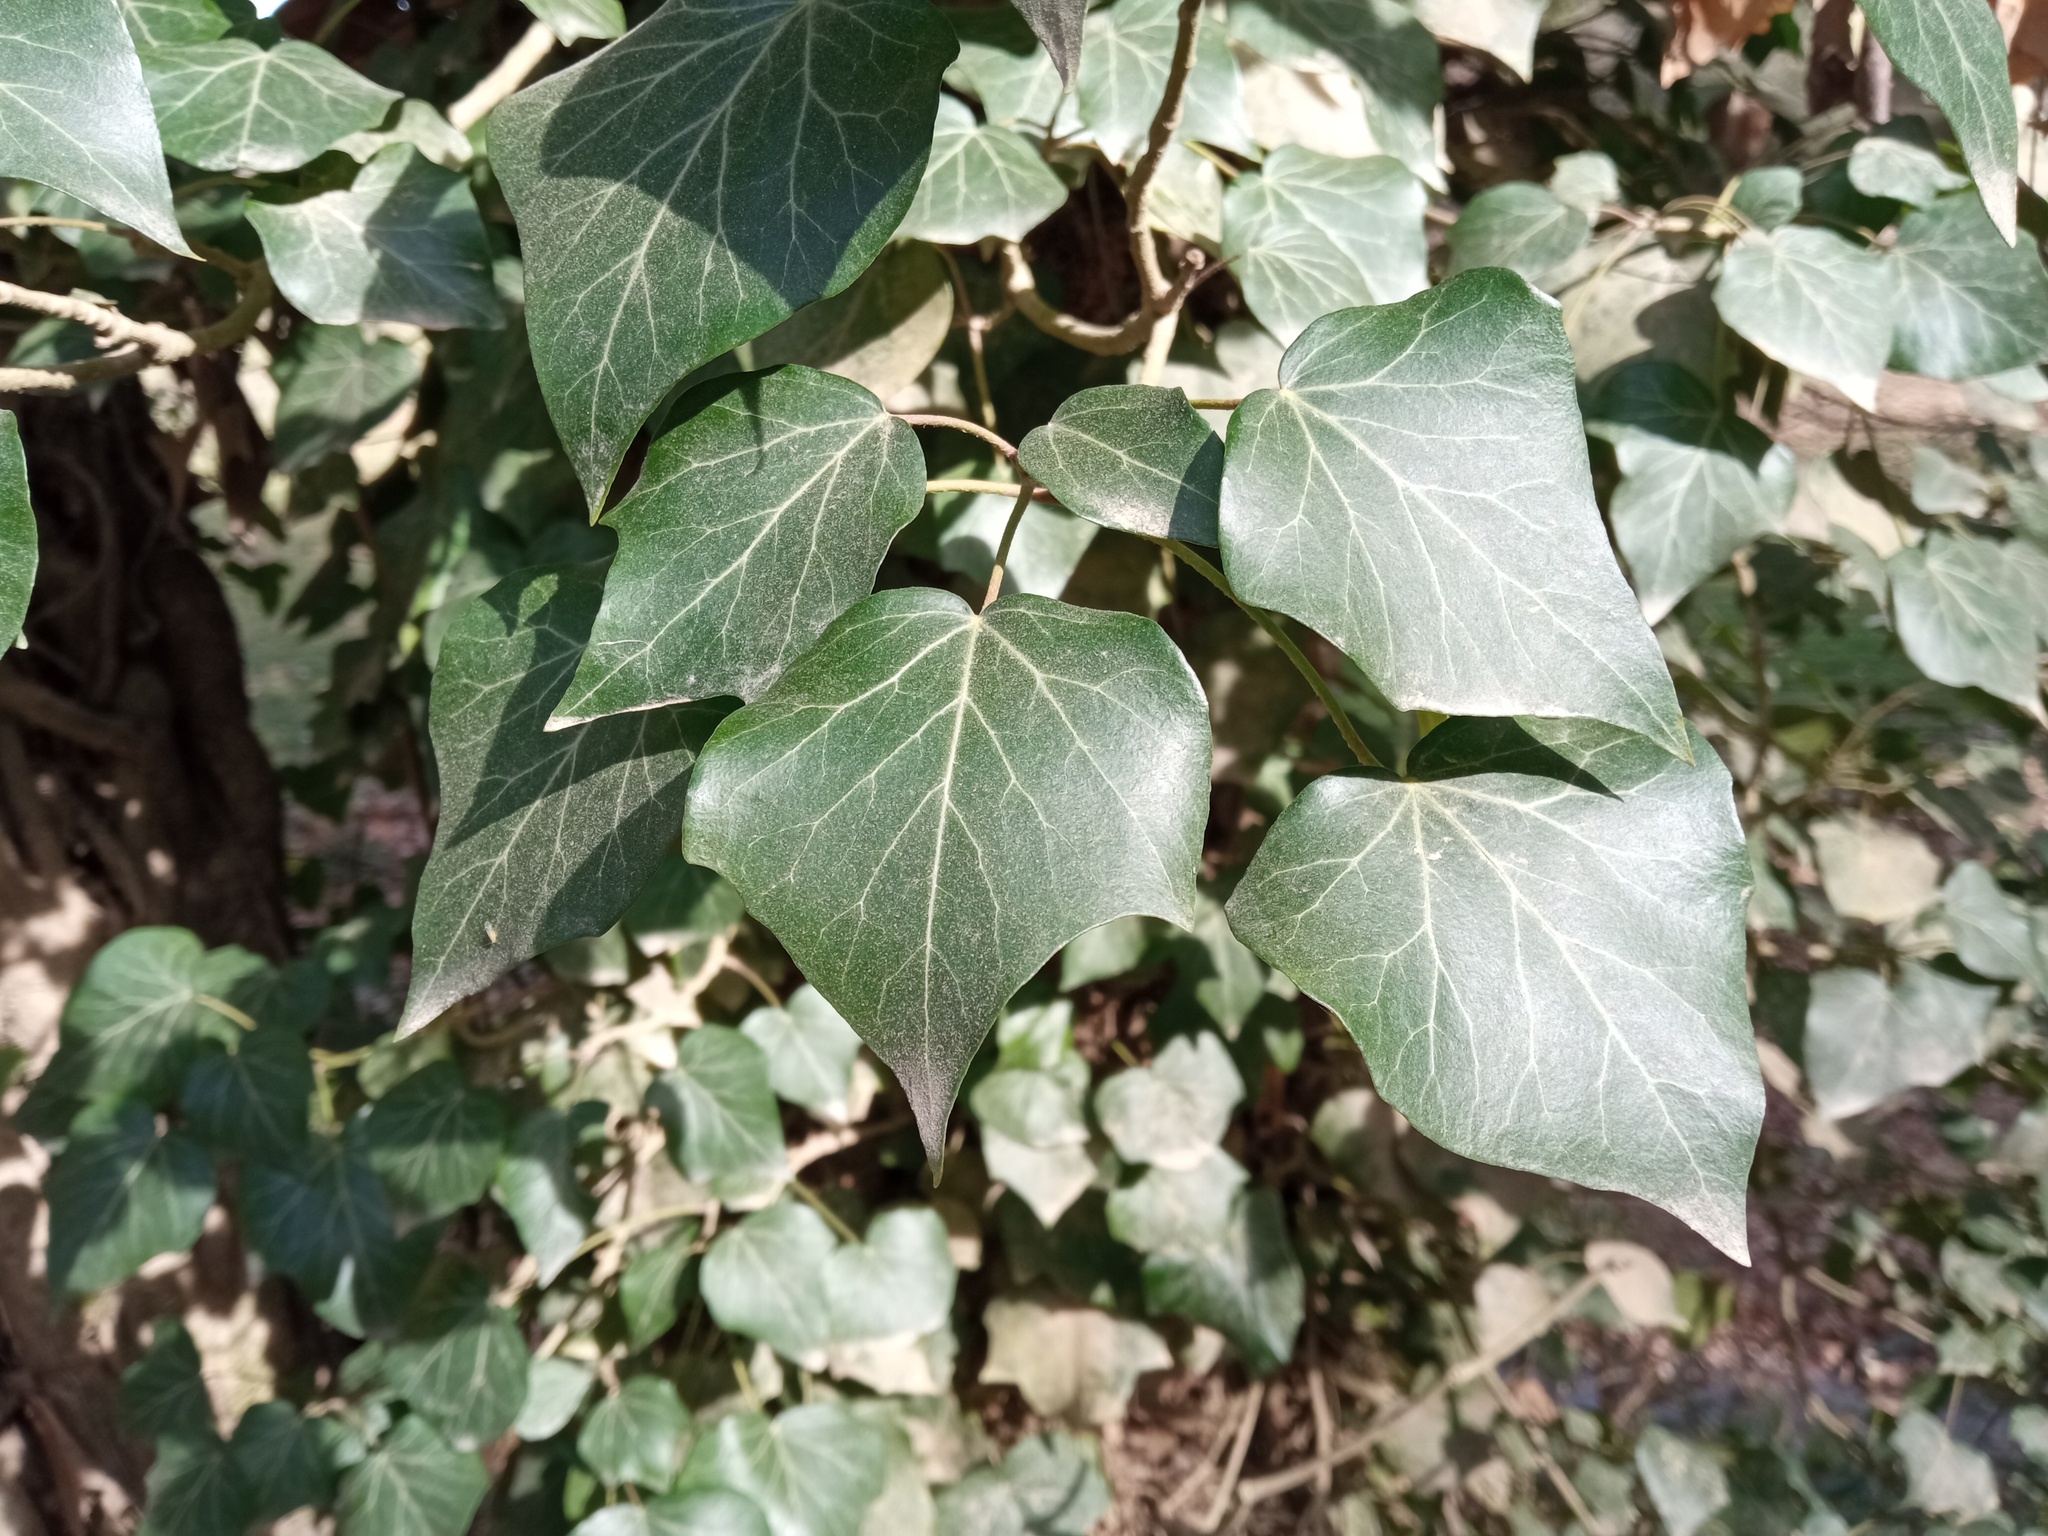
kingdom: Plantae
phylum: Tracheophyta
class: Magnoliopsida
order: Apiales
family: Araliaceae
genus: Hedera
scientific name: Hedera helix
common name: Ivy
